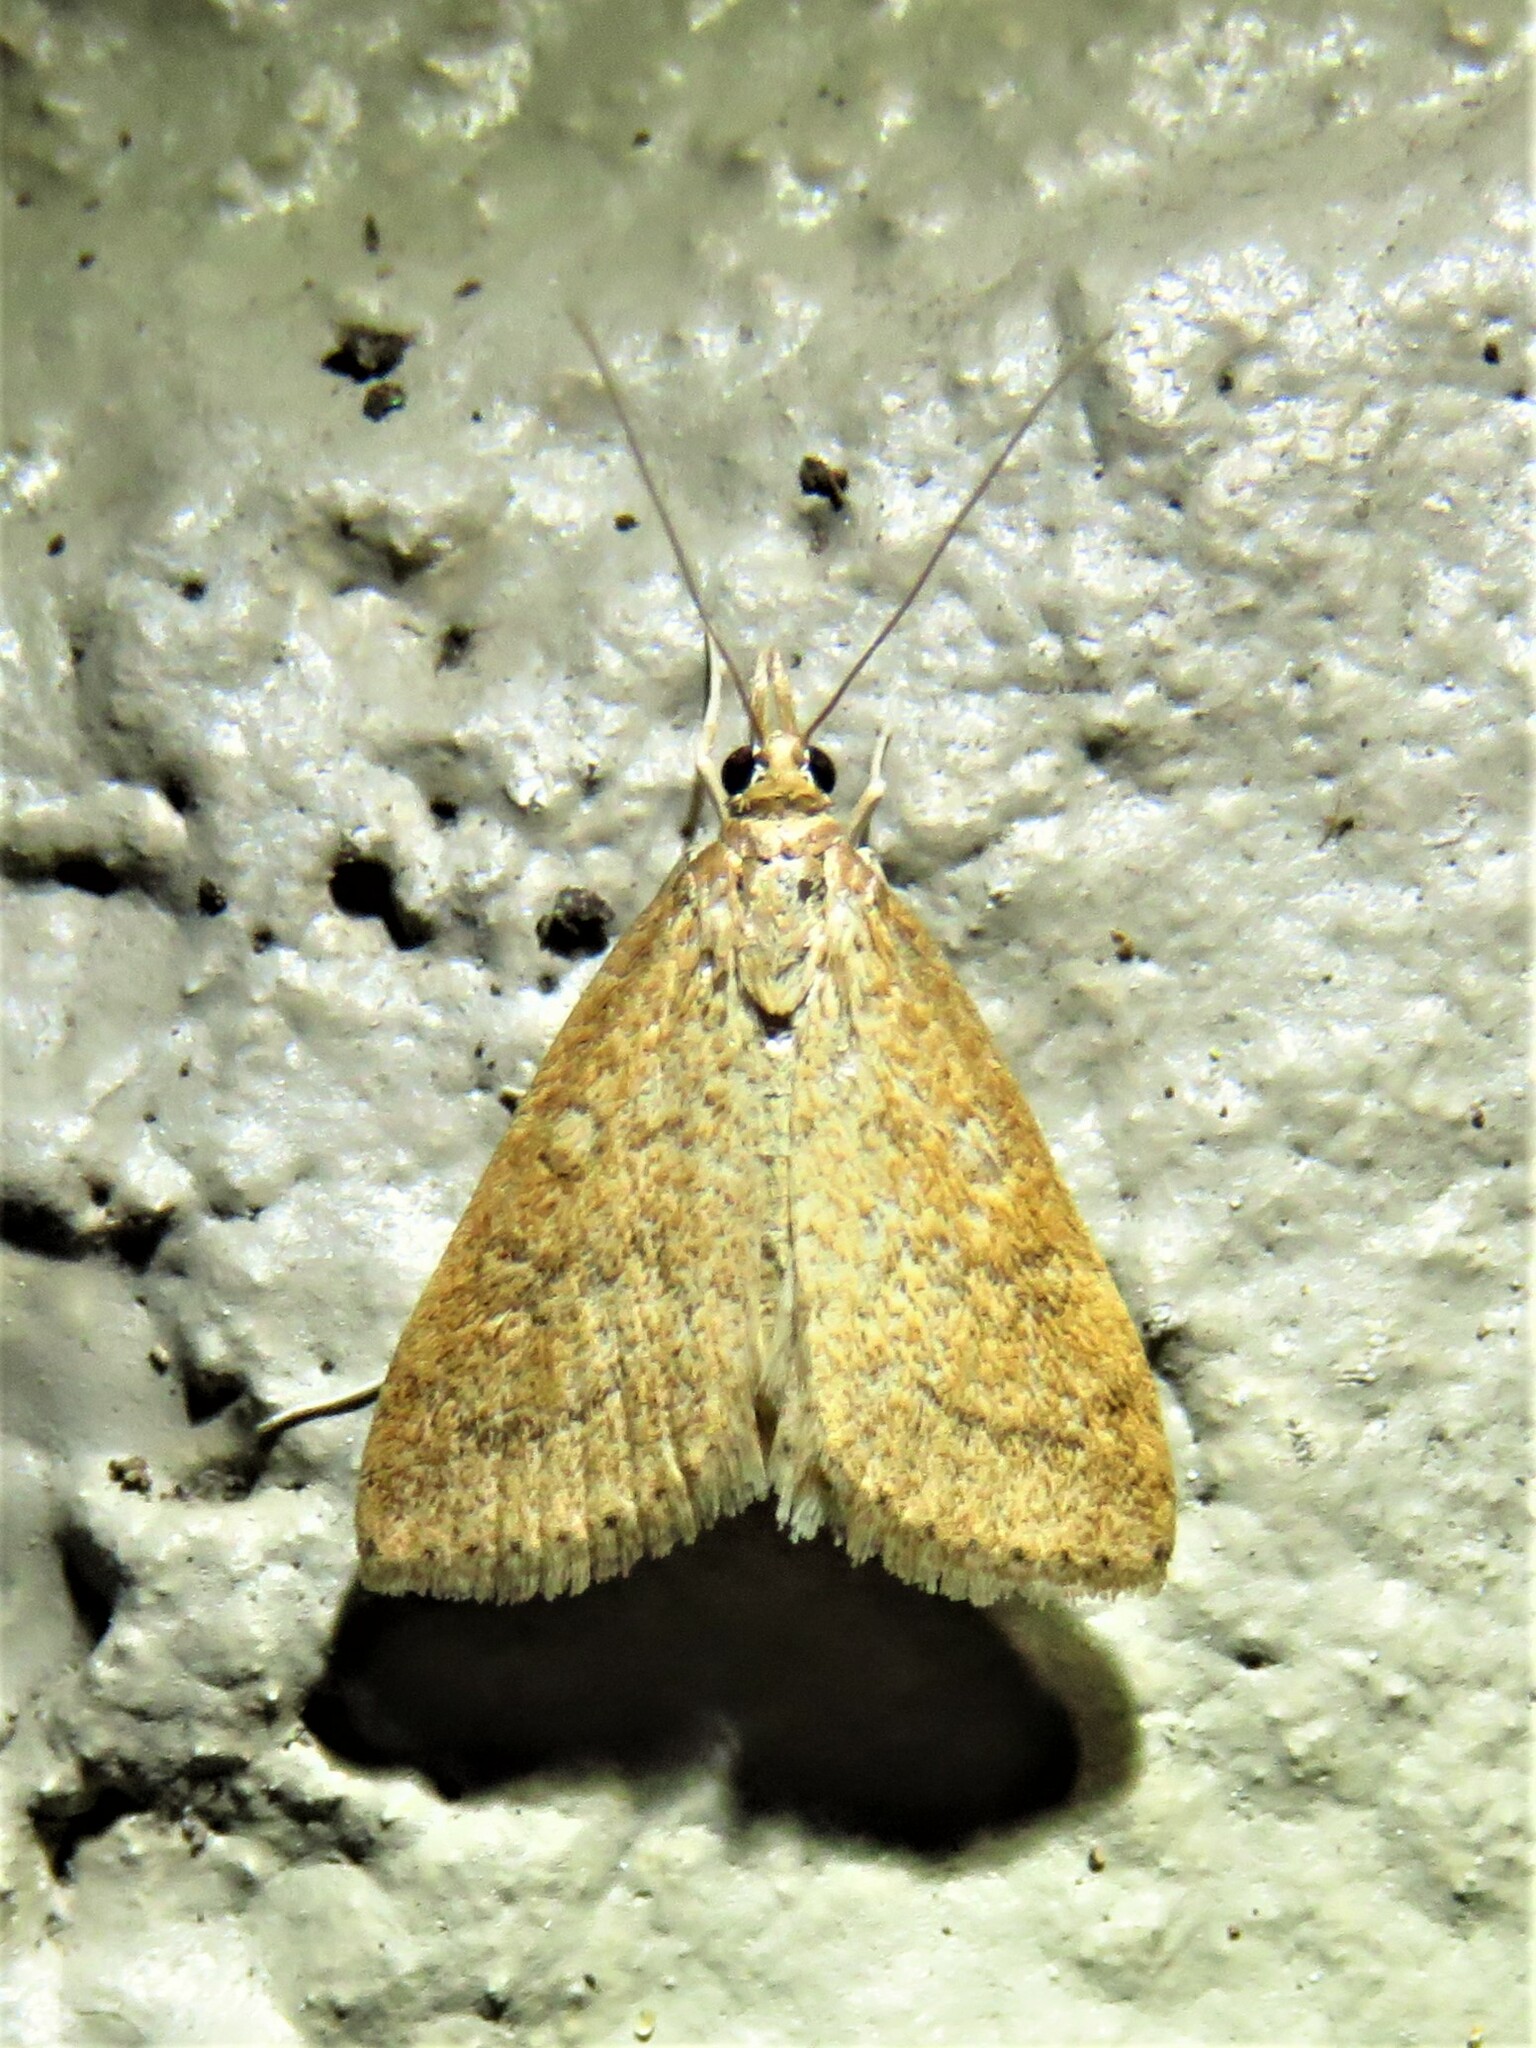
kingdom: Animalia
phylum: Arthropoda
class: Insecta
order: Lepidoptera
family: Crambidae
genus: Udea
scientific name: Udea rubigalis
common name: Celery leaftier moth
